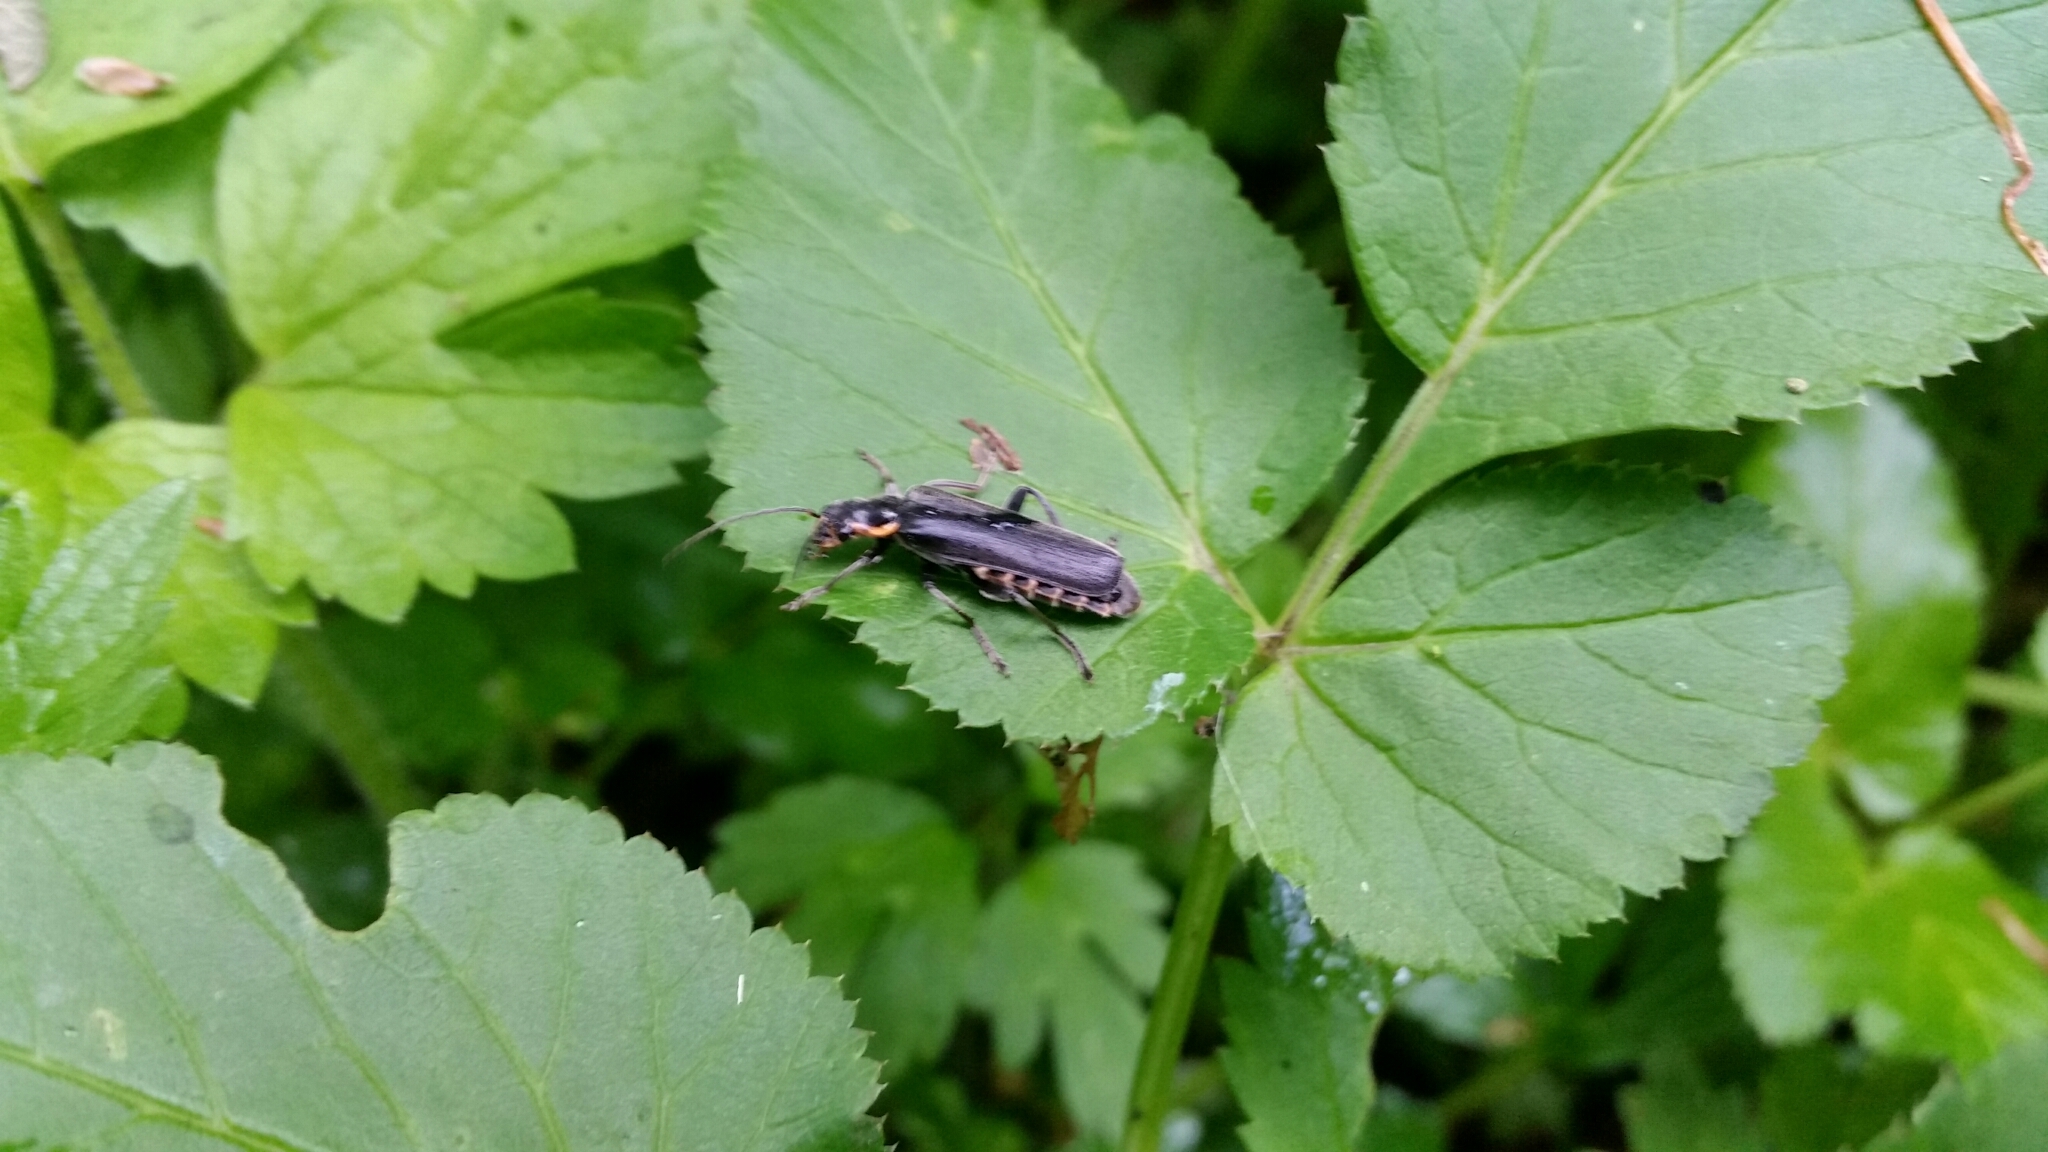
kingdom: Animalia
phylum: Arthropoda
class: Insecta
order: Coleoptera
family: Cantharidae
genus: Cantharis
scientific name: Cantharis
